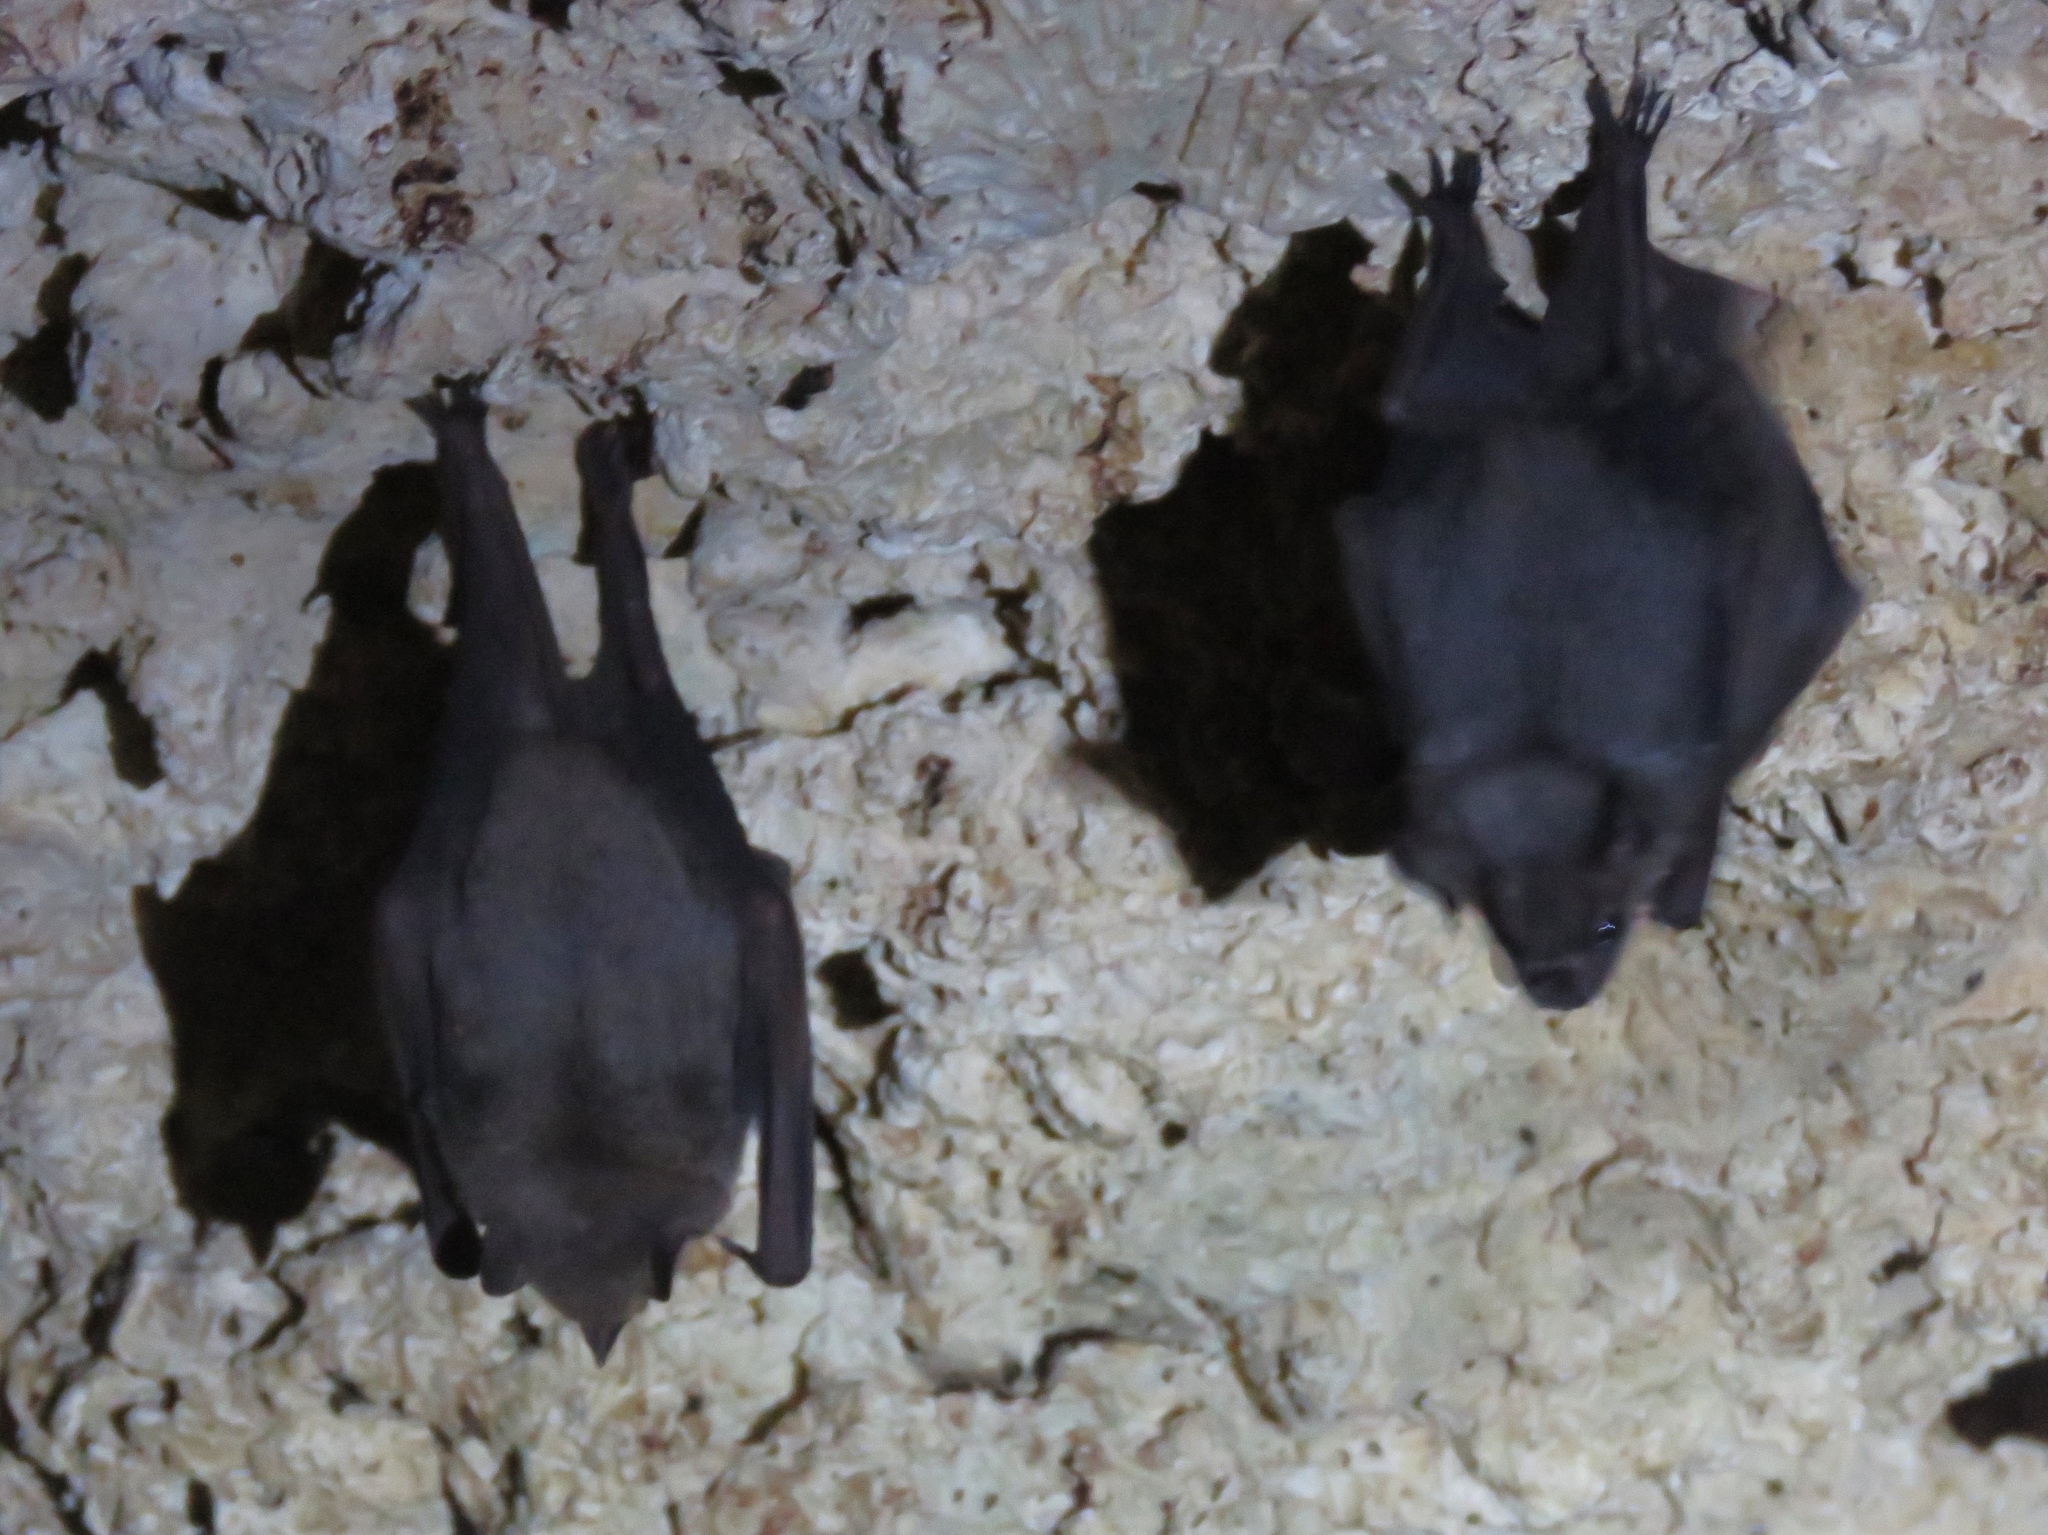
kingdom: Animalia
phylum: Chordata
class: Mammalia
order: Chiroptera
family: Phyllostomidae
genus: Artibeus
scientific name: Artibeus jamaicensis
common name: Jamaican fruit-eating bat
